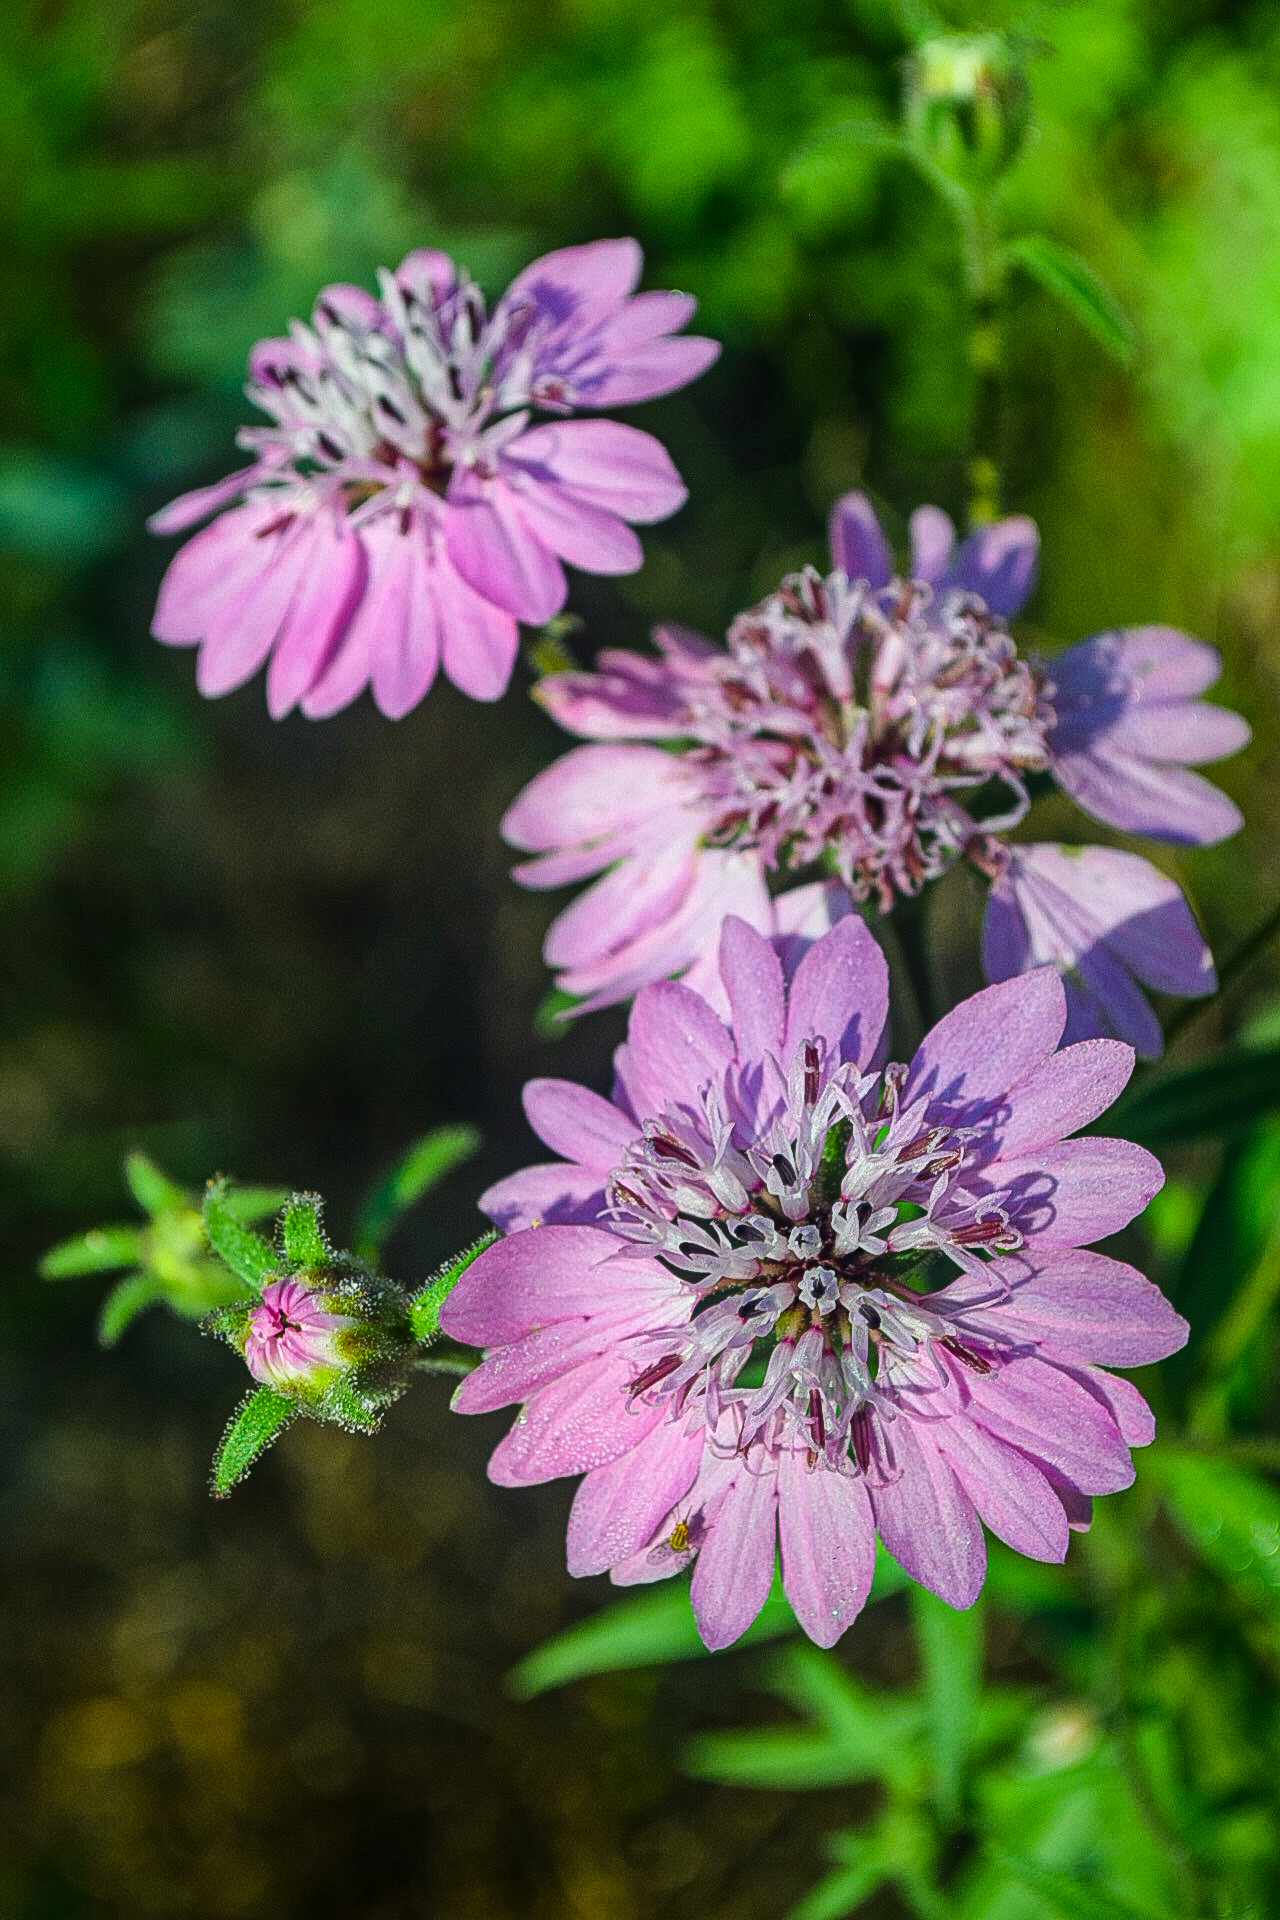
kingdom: Plantae
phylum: Tracheophyta
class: Magnoliopsida
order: Asterales
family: Asteraceae
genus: Palafoxia
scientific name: Palafoxia hookeriana
